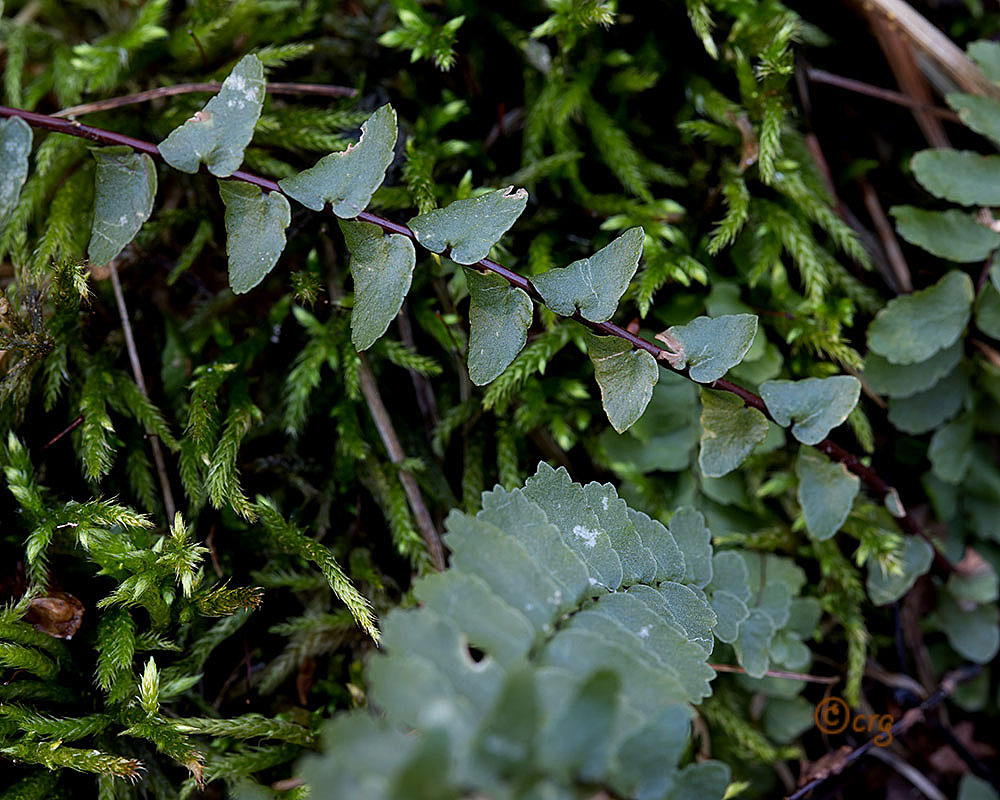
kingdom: Plantae
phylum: Tracheophyta
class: Polypodiopsida
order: Polypodiales
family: Aspleniaceae
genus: Asplenium
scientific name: Asplenium platyneuron
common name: Ebony spleenwort
